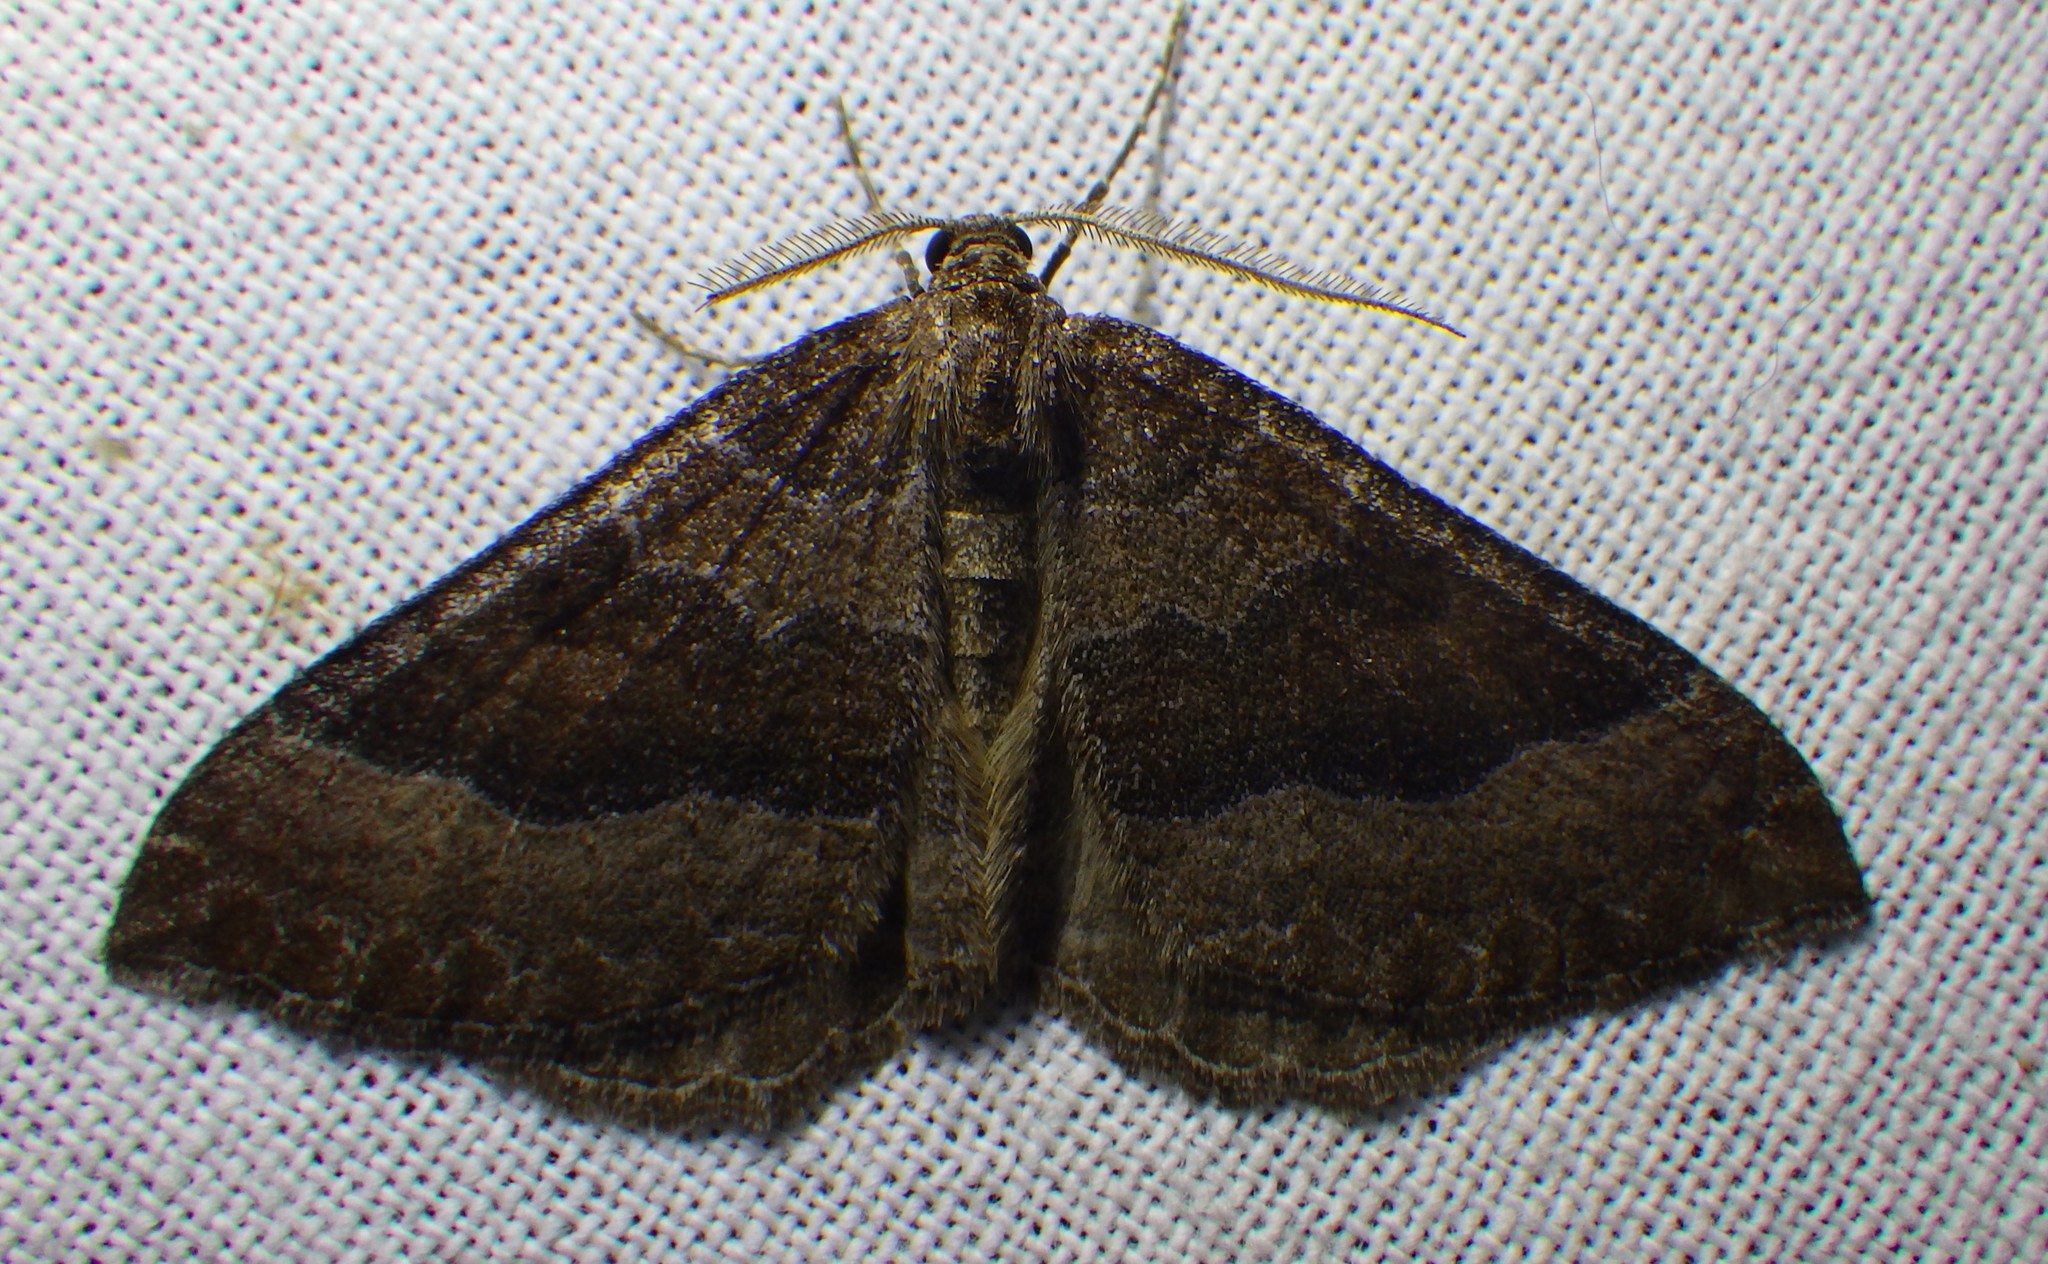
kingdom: Animalia
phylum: Arthropoda
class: Insecta
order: Lepidoptera
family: Geometridae
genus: Larentia
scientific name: Larentia clavaria
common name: Mallow
